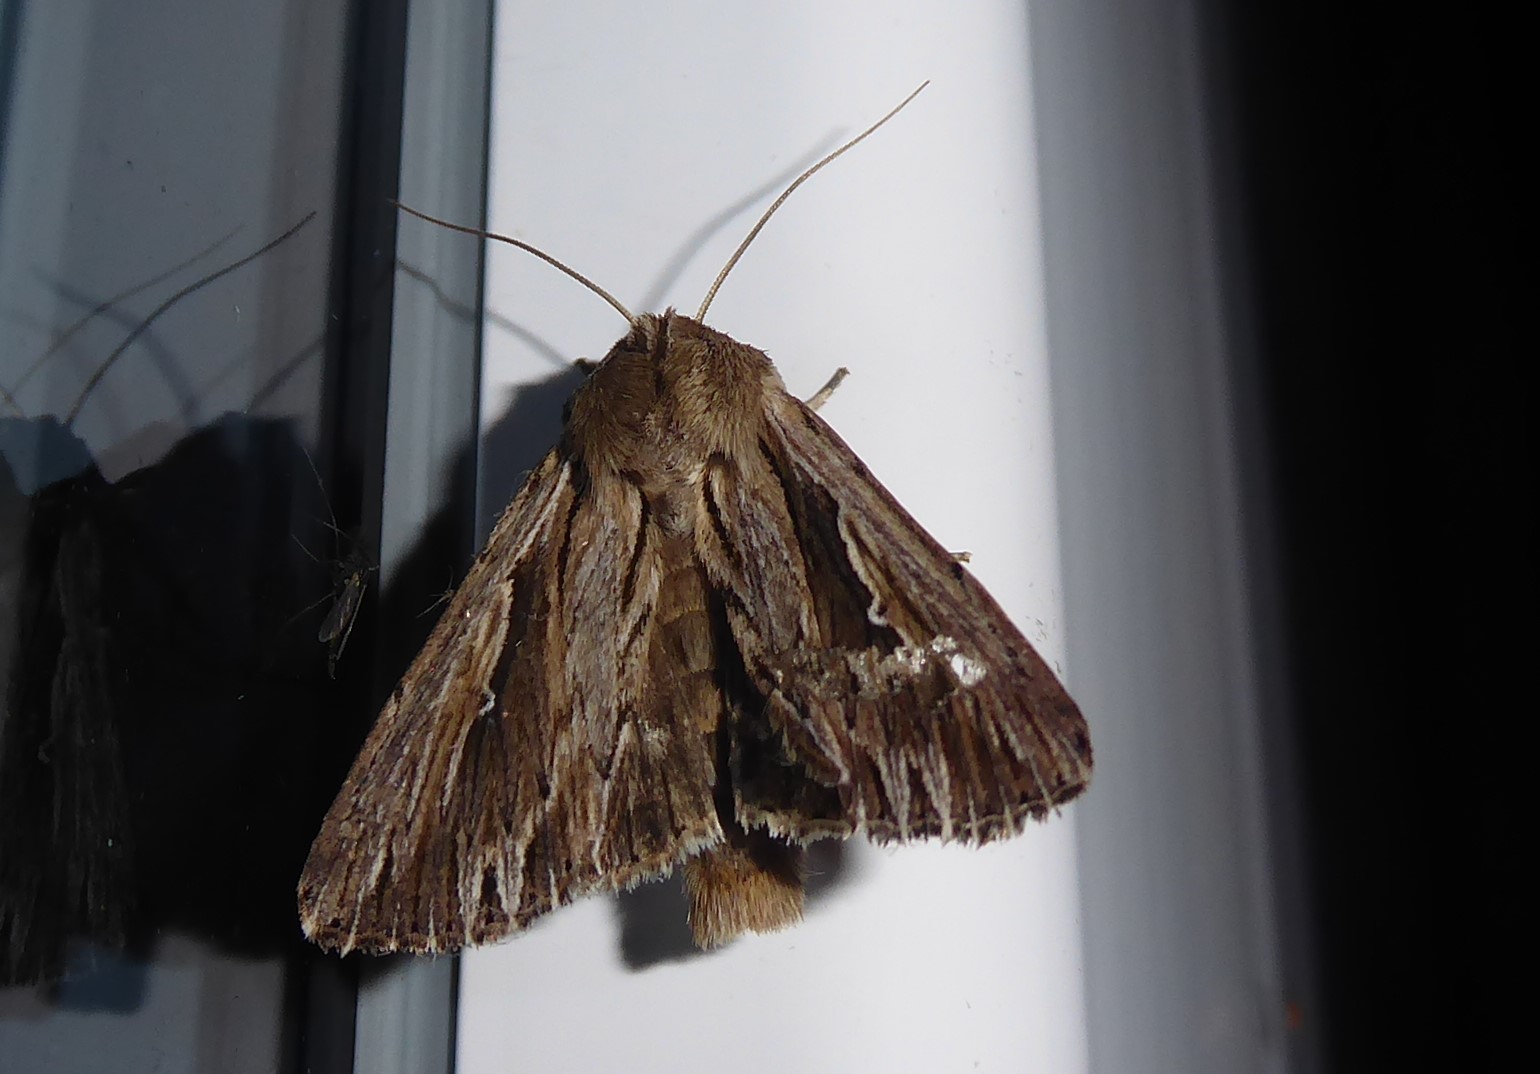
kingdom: Animalia
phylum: Arthropoda
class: Insecta
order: Lepidoptera
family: Noctuidae
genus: Persectania
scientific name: Persectania aversa
